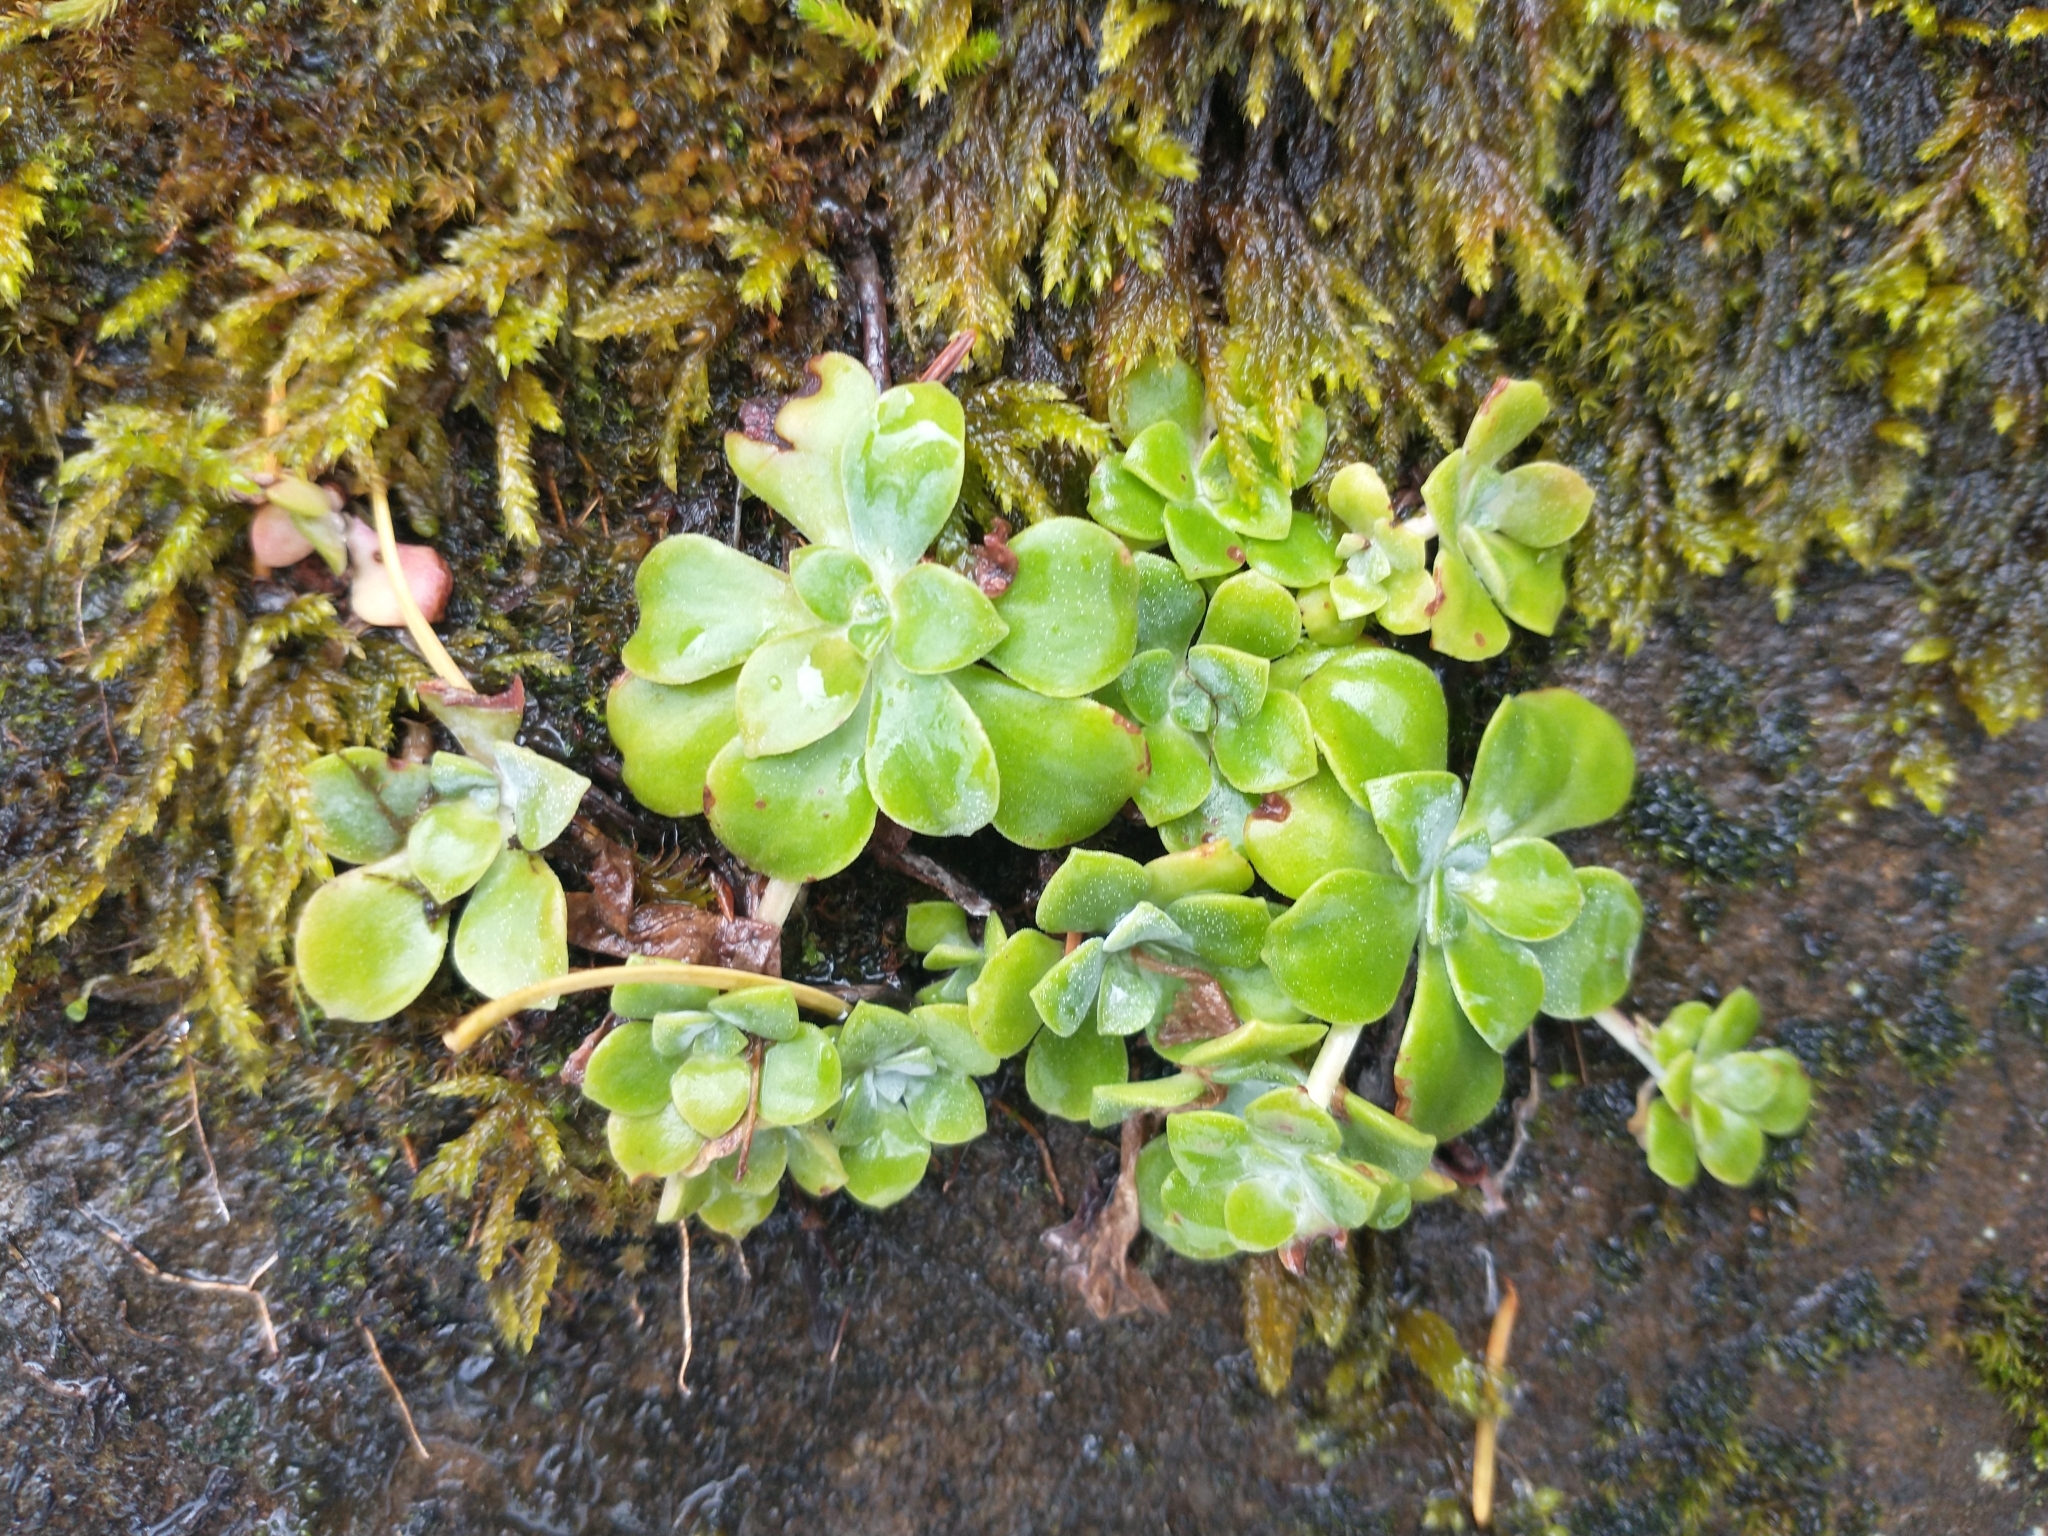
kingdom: Plantae
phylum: Tracheophyta
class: Magnoliopsida
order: Saxifragales
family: Crassulaceae
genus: Sedum
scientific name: Sedum spathulifolium
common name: Colorado stonecrop
